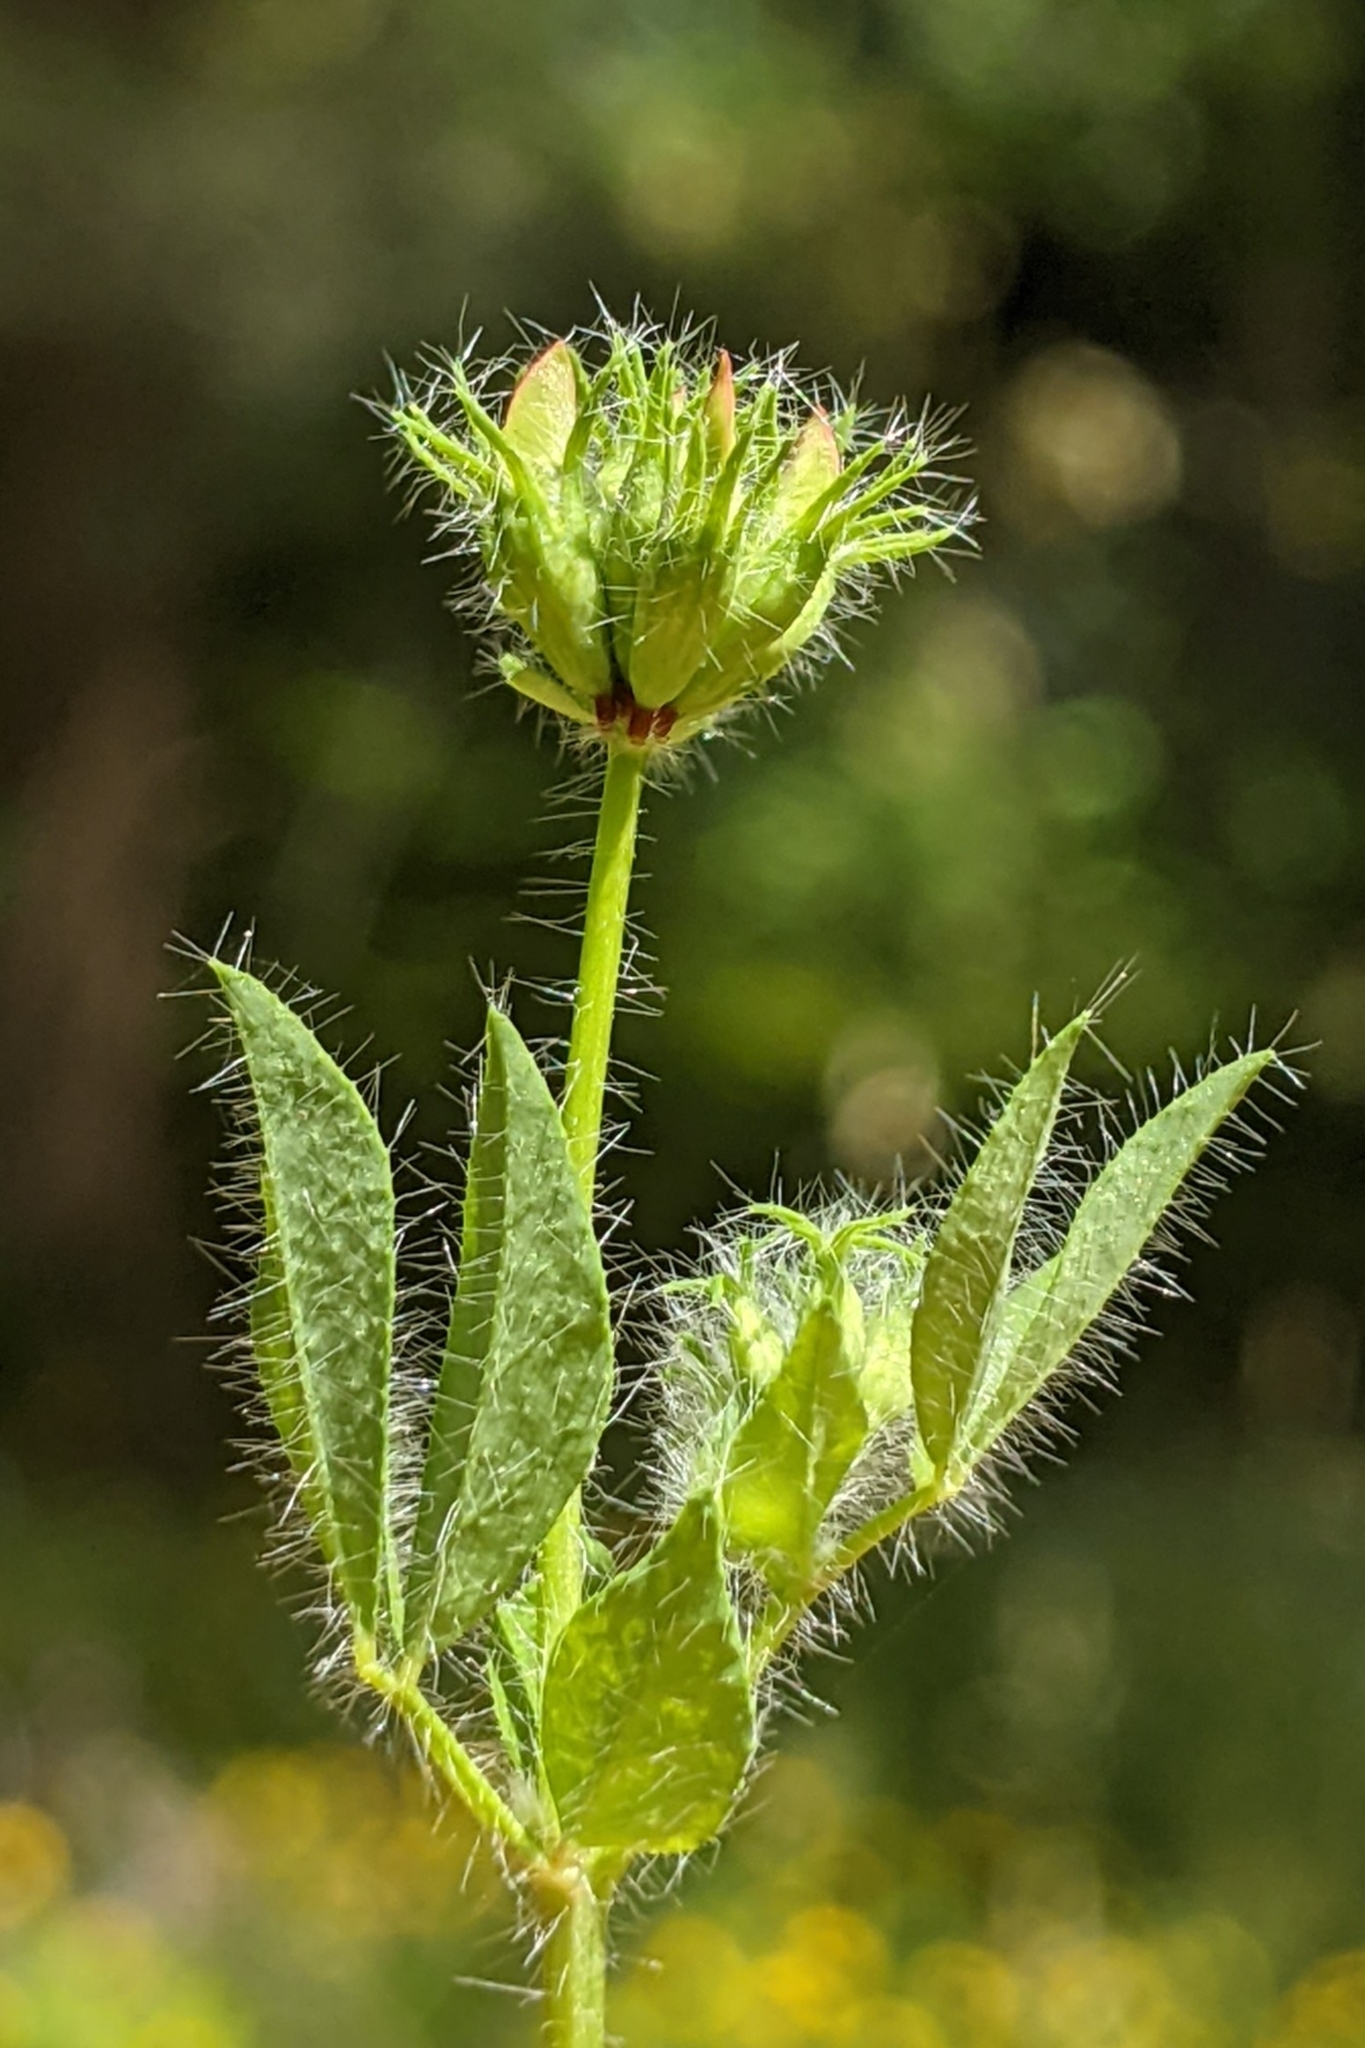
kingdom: Plantae
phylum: Tracheophyta
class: Magnoliopsida
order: Fabales
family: Fabaceae
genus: Lotus
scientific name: Lotus
